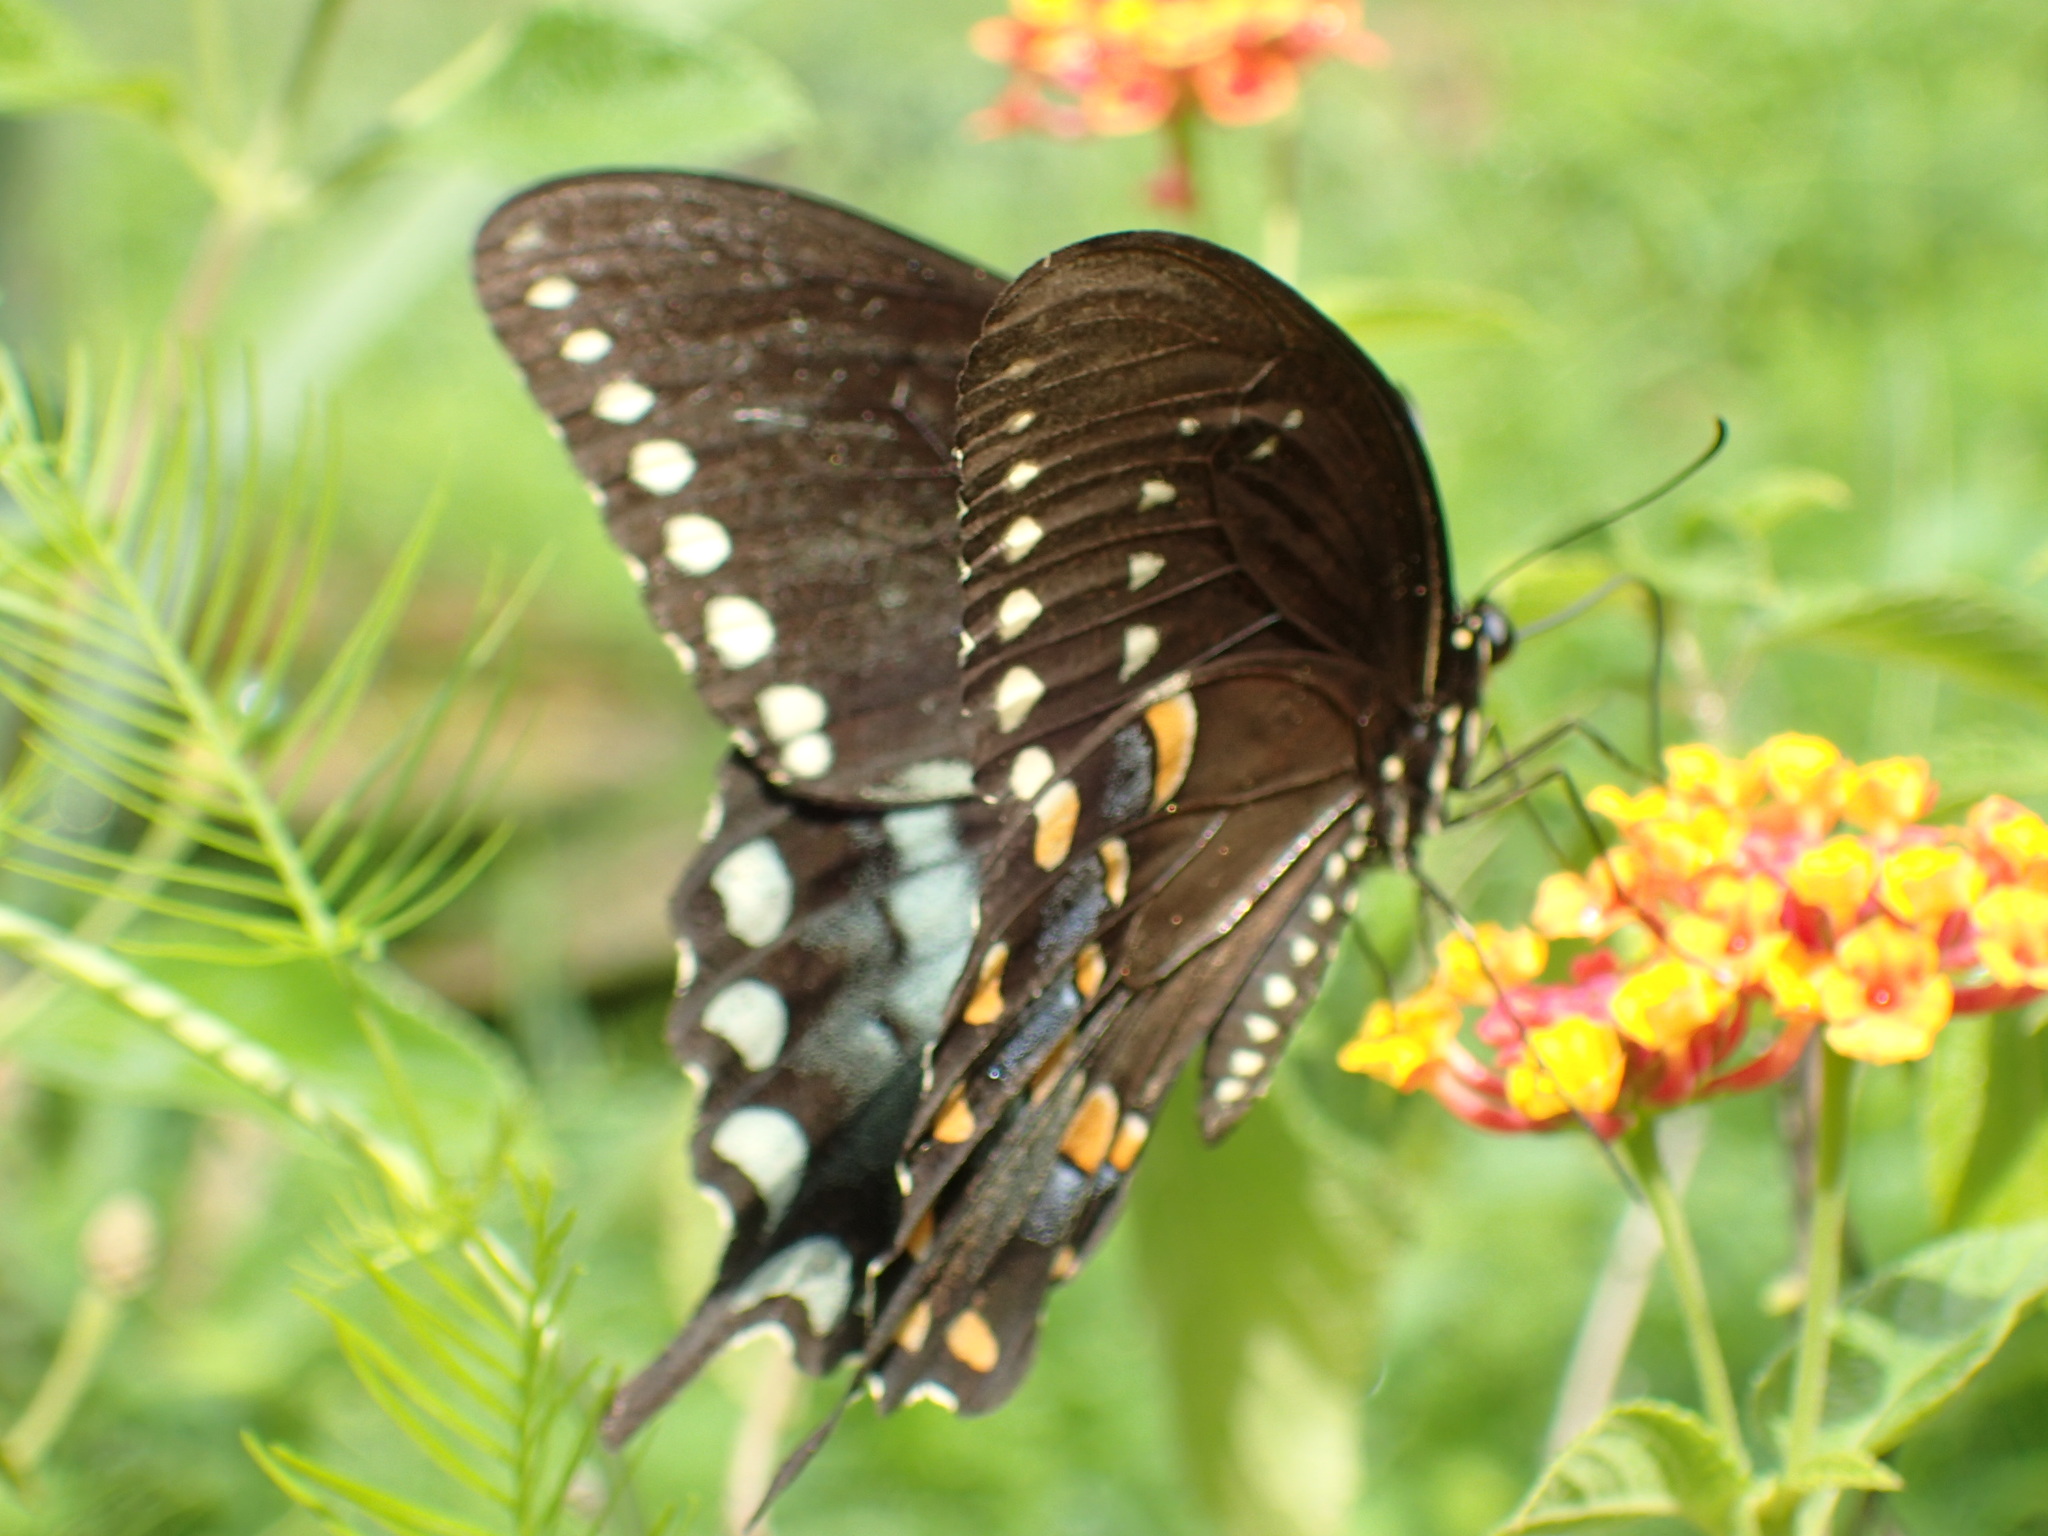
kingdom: Animalia
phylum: Arthropoda
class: Insecta
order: Lepidoptera
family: Papilionidae
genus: Papilio
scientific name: Papilio troilus
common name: Spicebush swallowtail
